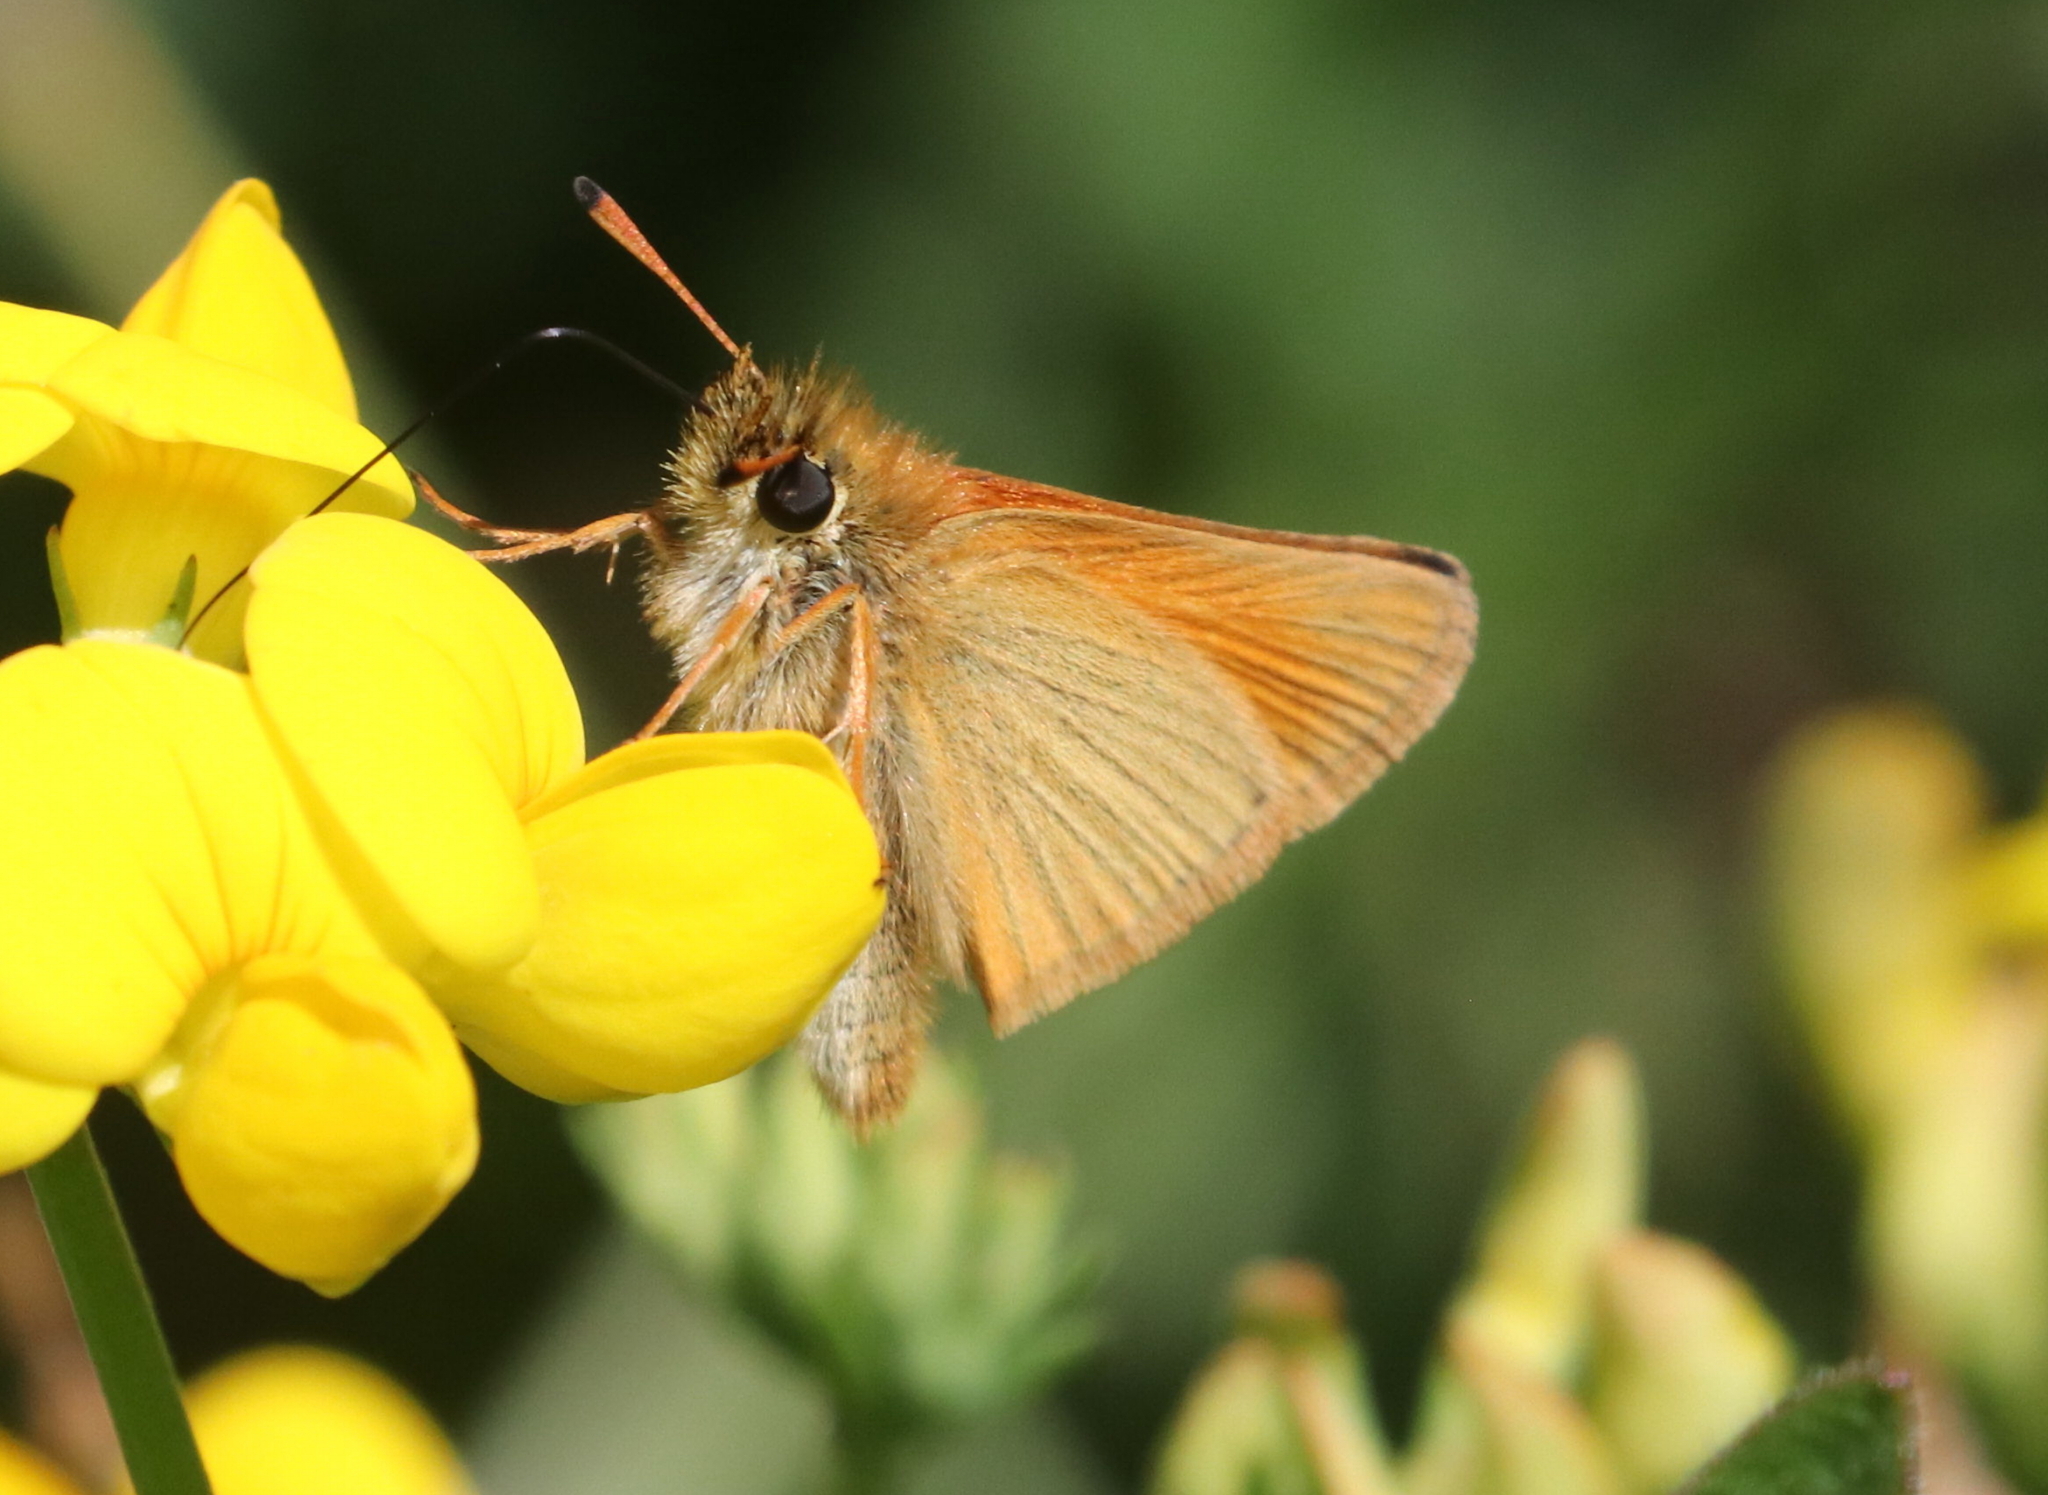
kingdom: Animalia
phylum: Arthropoda
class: Insecta
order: Lepidoptera
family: Hesperiidae
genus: Thymelicus
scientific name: Thymelicus lineola
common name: Essex skipper
